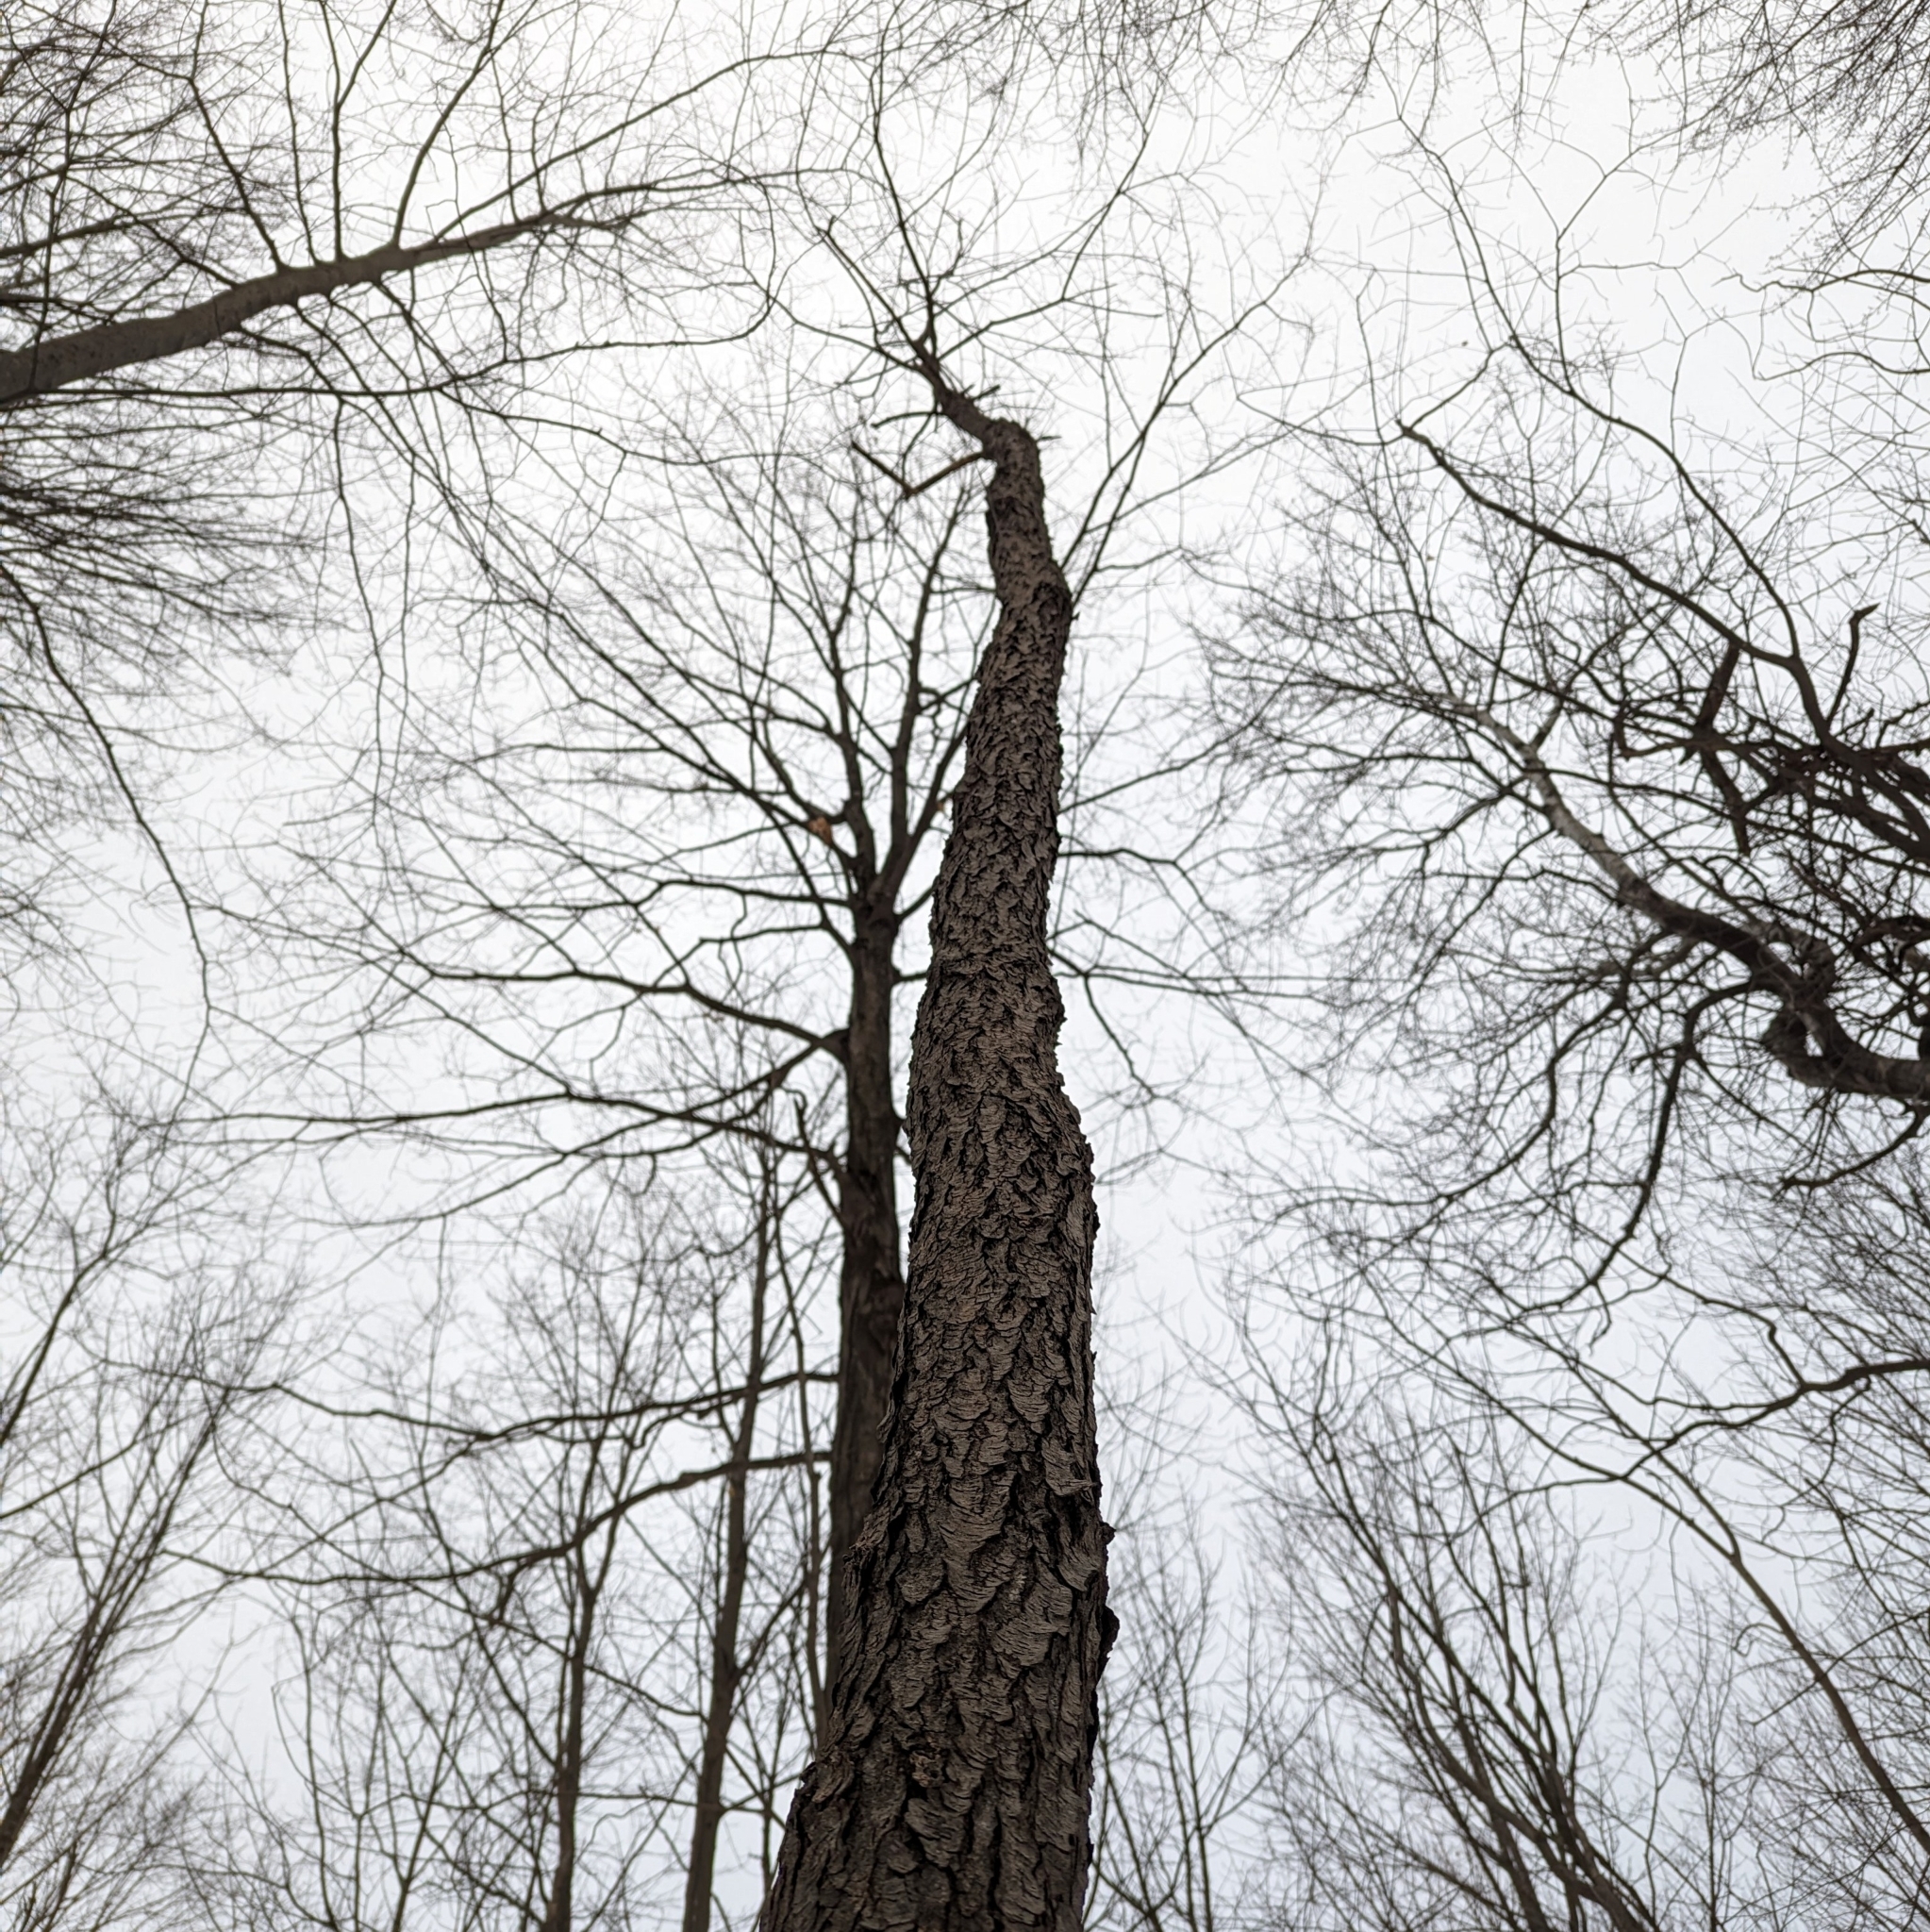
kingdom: Plantae
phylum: Tracheophyta
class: Magnoliopsida
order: Rosales
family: Rosaceae
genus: Prunus
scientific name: Prunus serotina
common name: Black cherry
